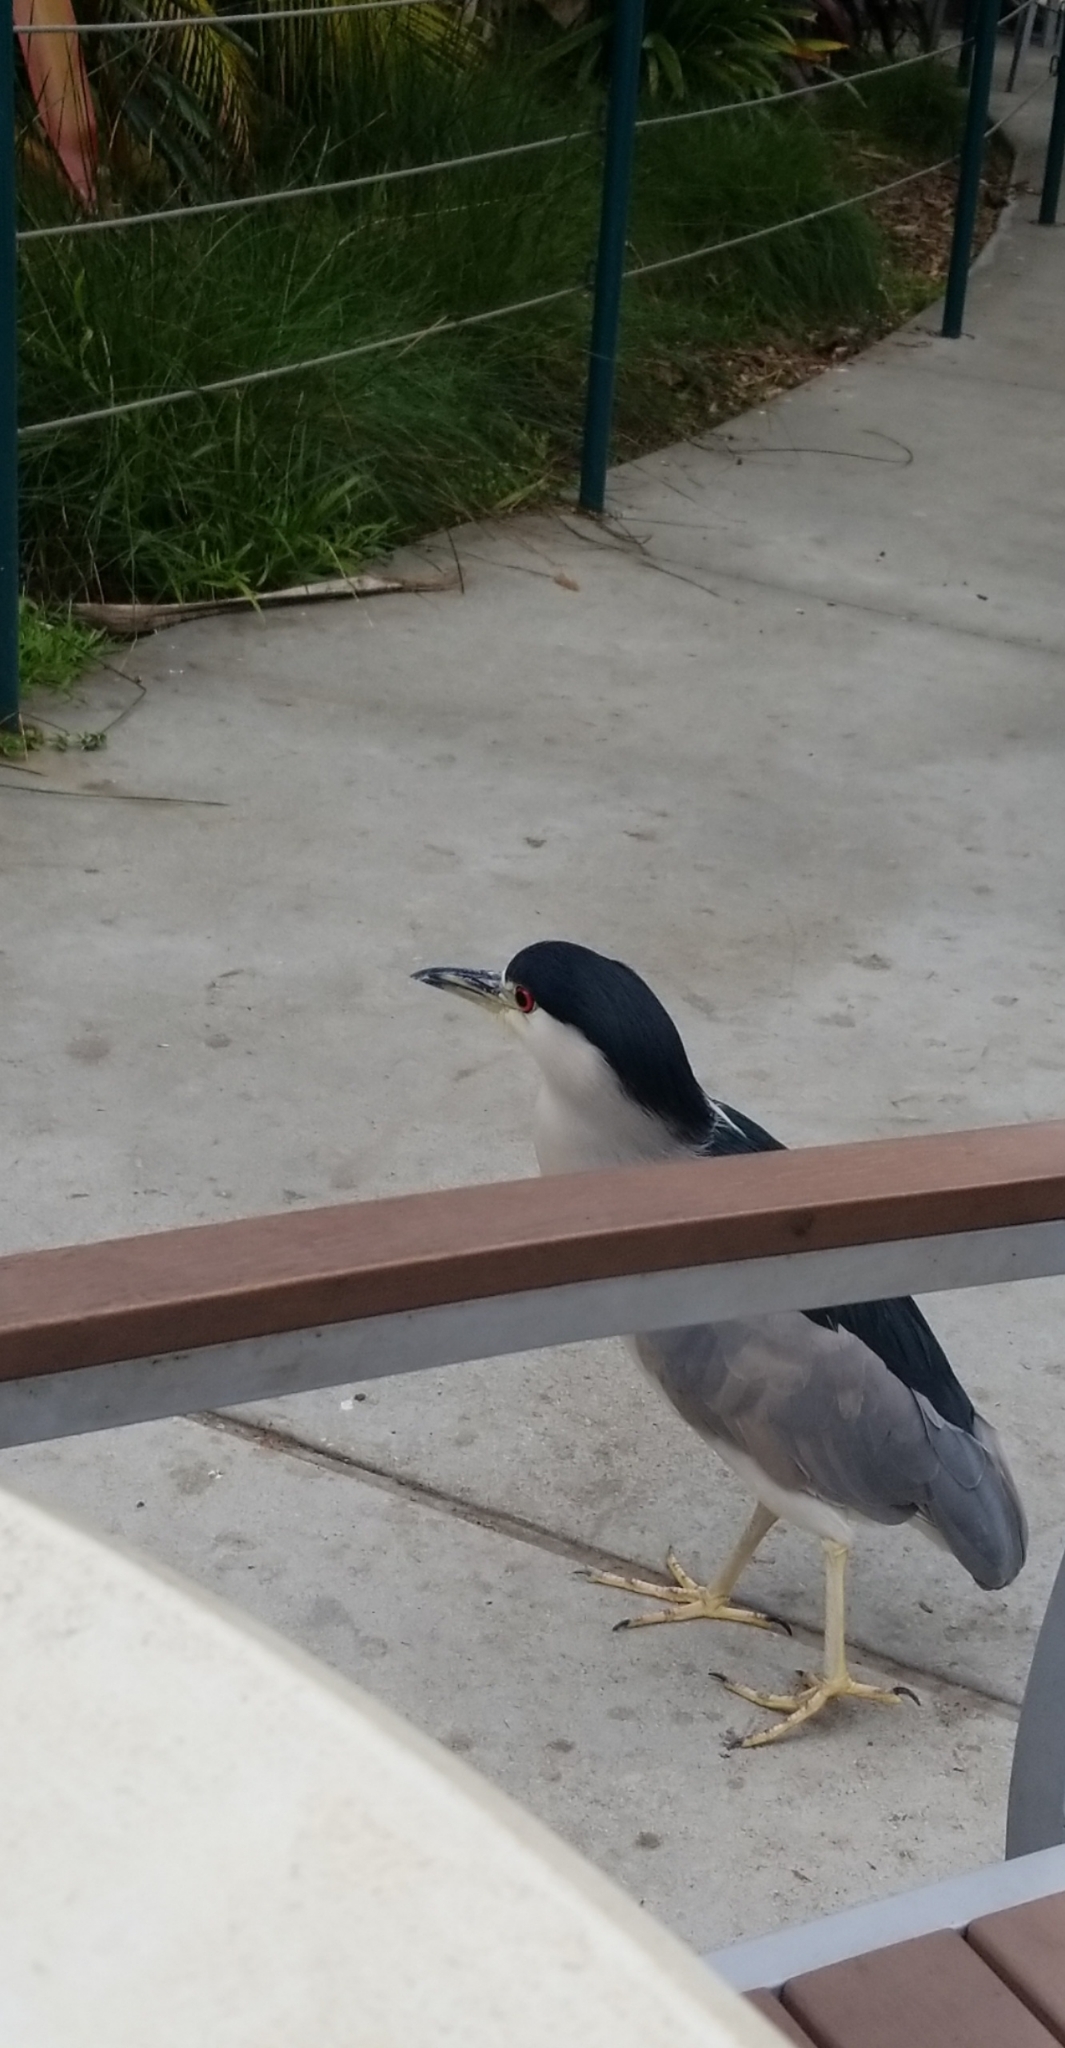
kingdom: Animalia
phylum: Chordata
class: Aves
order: Pelecaniformes
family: Ardeidae
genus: Nycticorax
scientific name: Nycticorax nycticorax
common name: Black-crowned night heron
